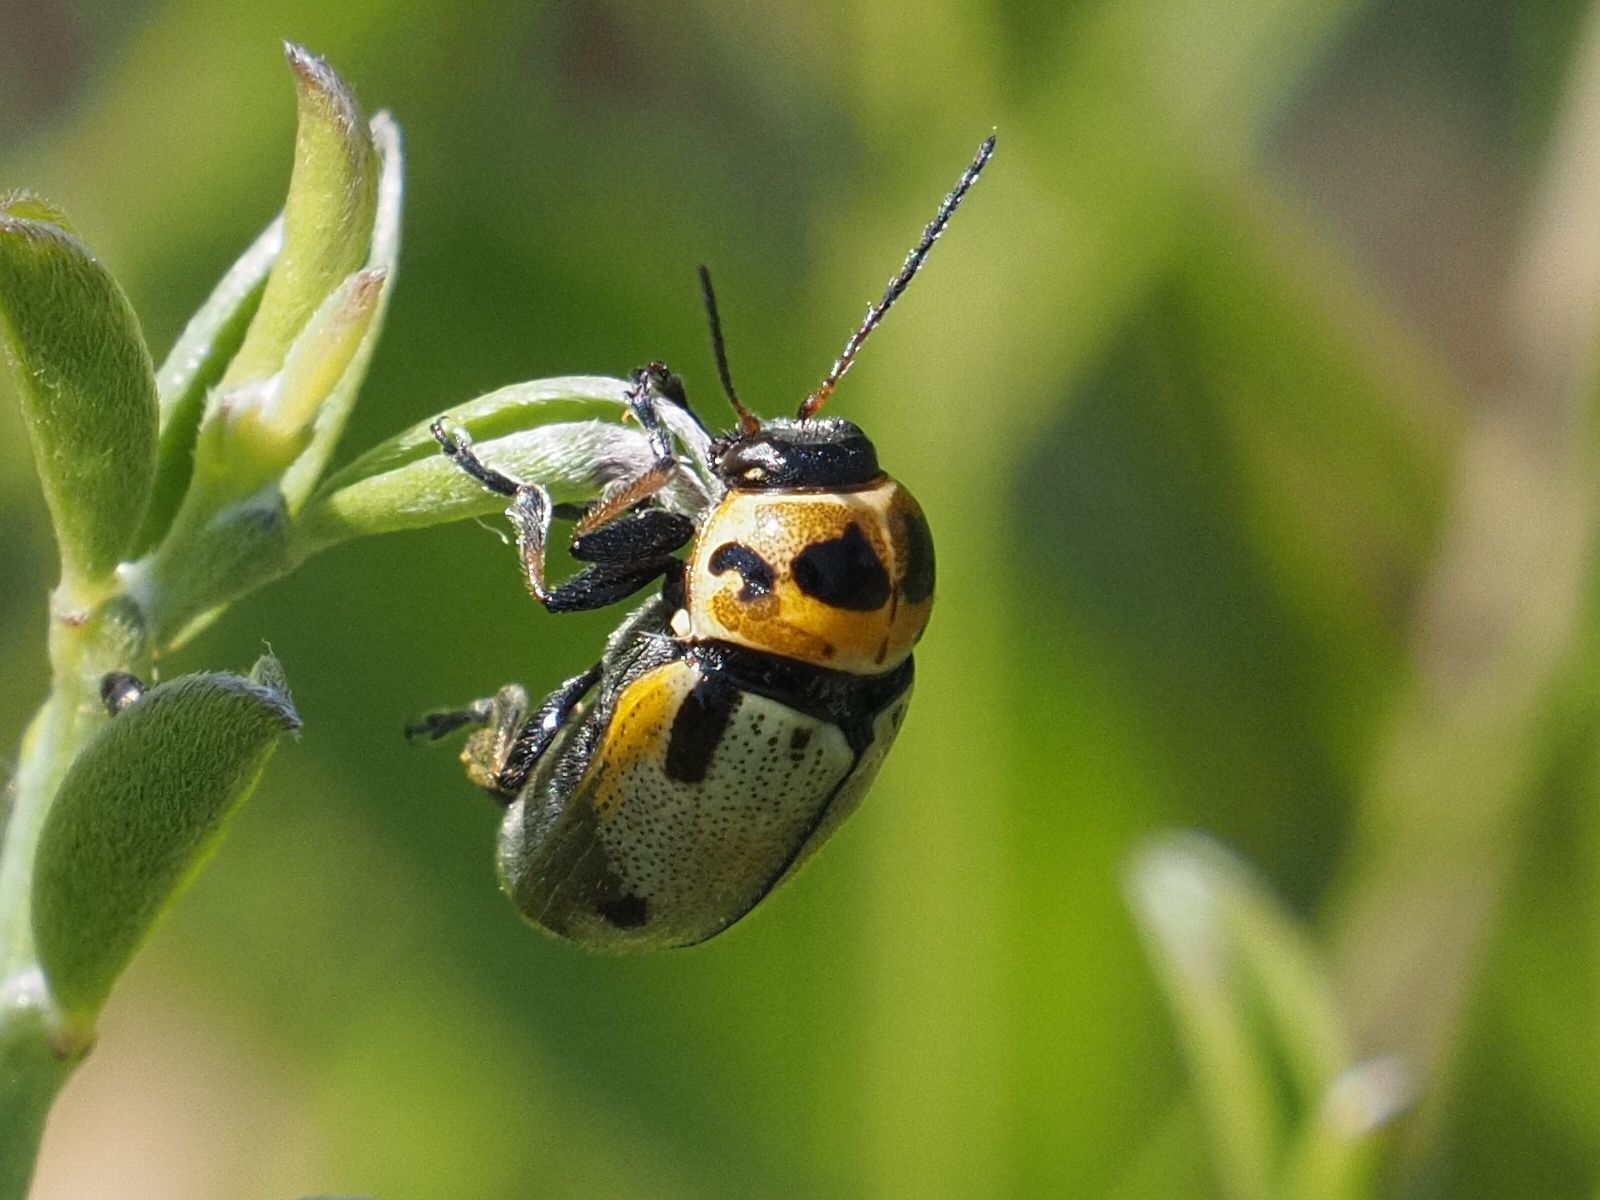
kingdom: Animalia
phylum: Arthropoda
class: Insecta
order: Coleoptera
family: Chrysomelidae
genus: Cryptocephalus
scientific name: Cryptocephalus quatuordecimmaculatus
